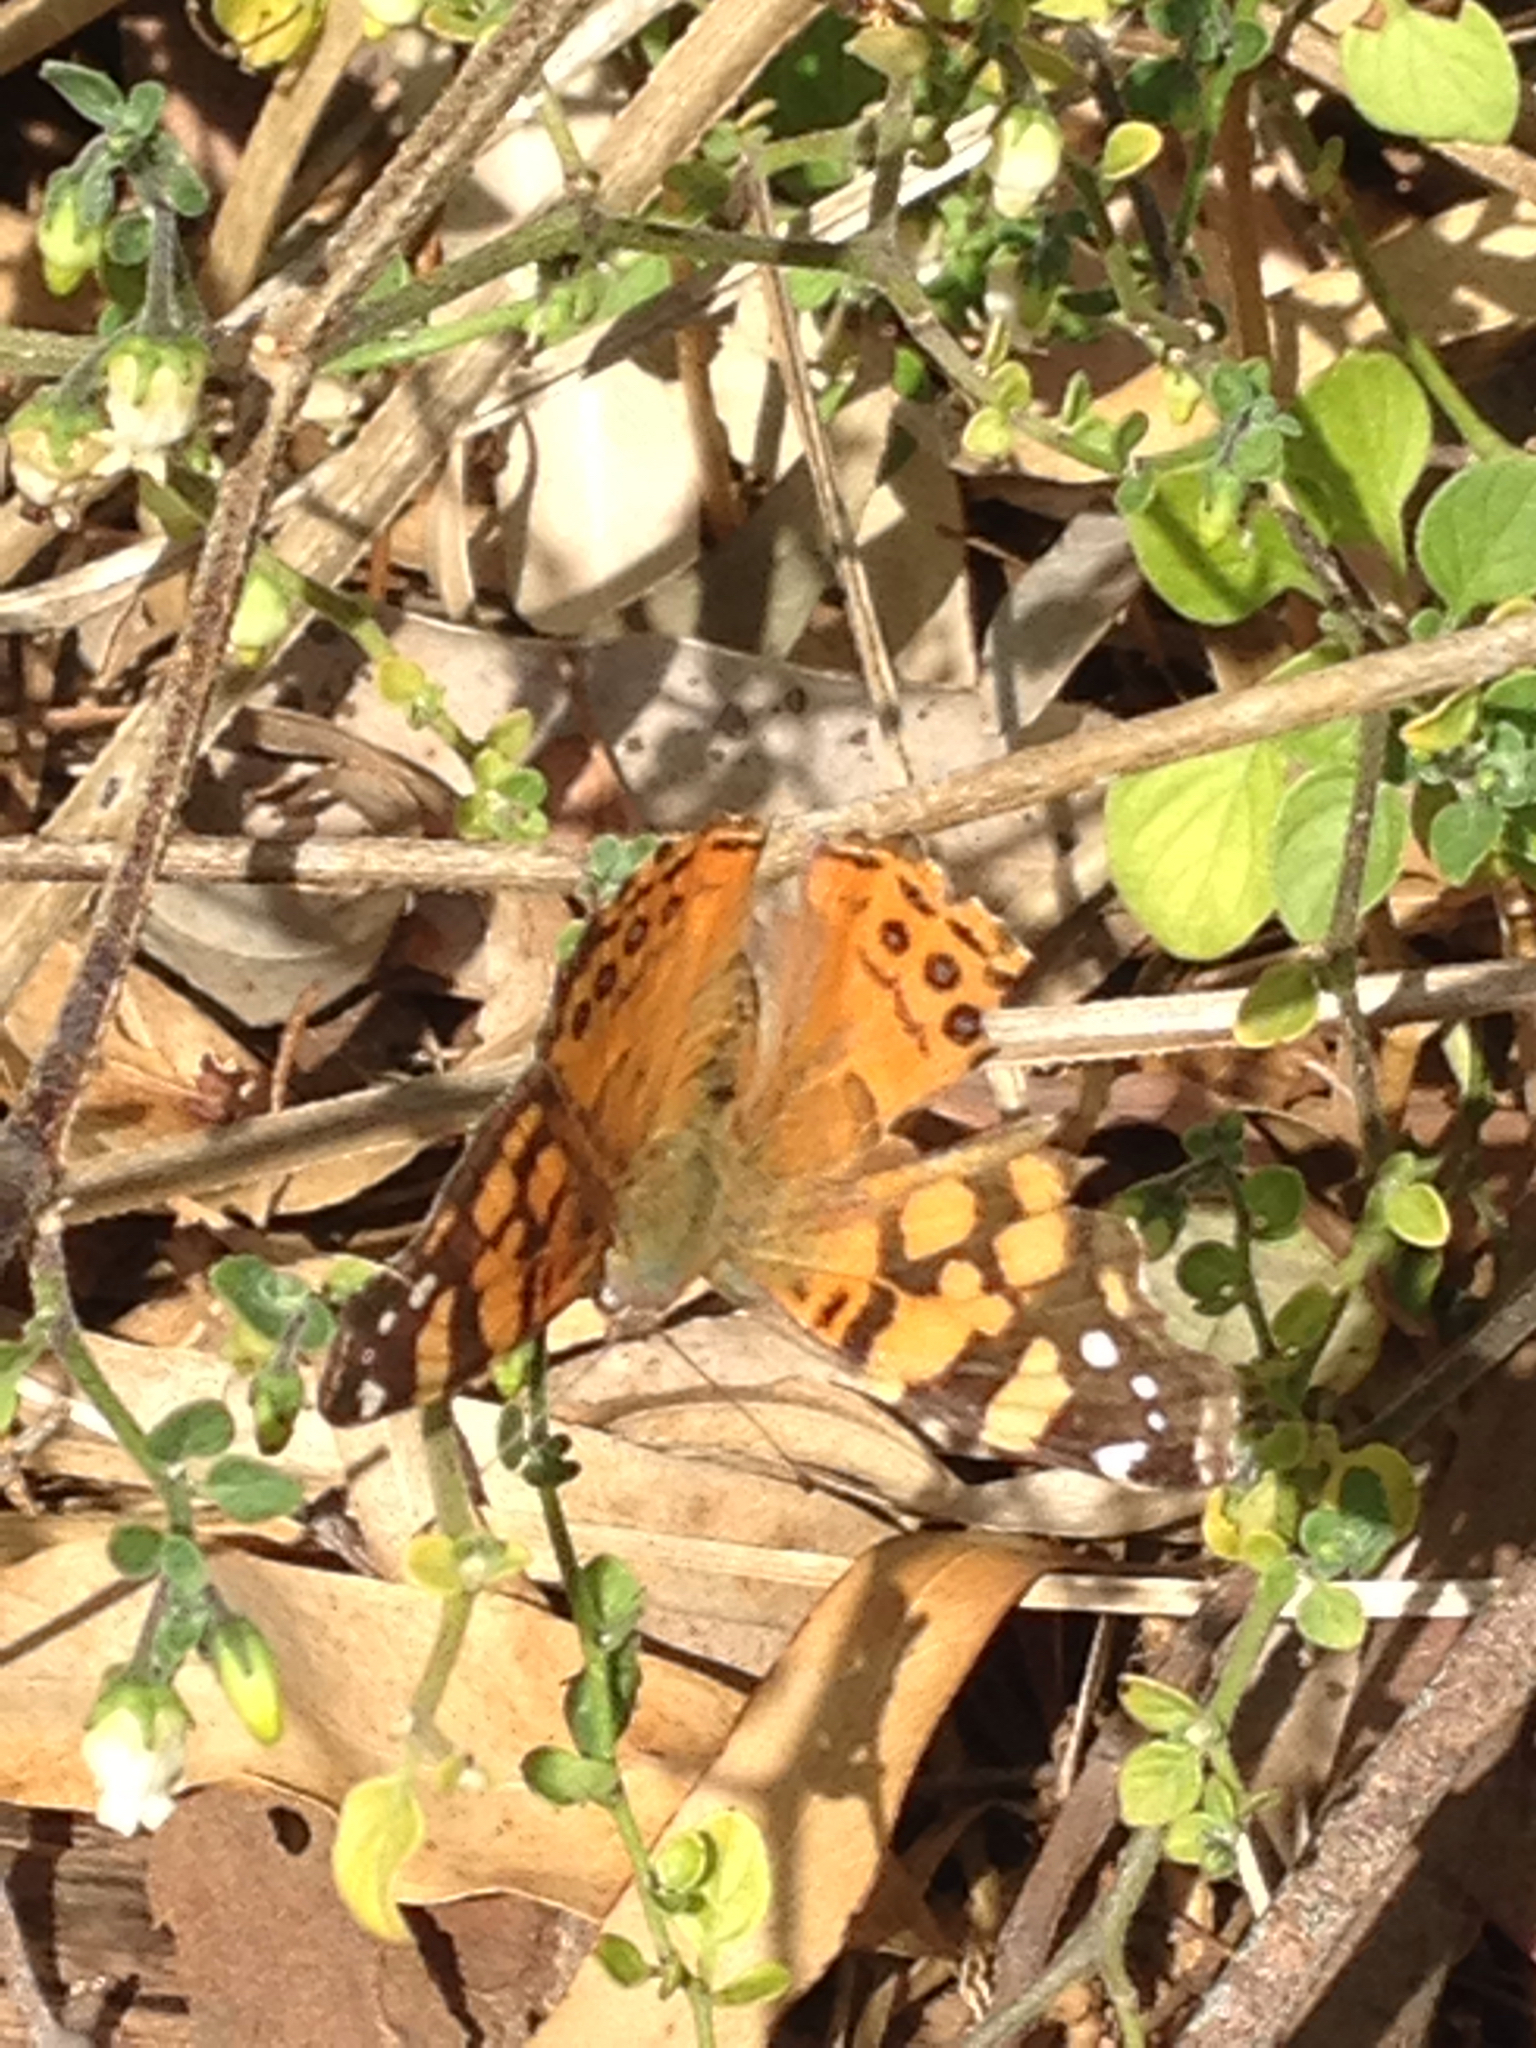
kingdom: Animalia
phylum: Arthropoda
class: Insecta
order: Lepidoptera
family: Nymphalidae
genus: Vanessa
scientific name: Vanessa annabella
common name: West coast lady
